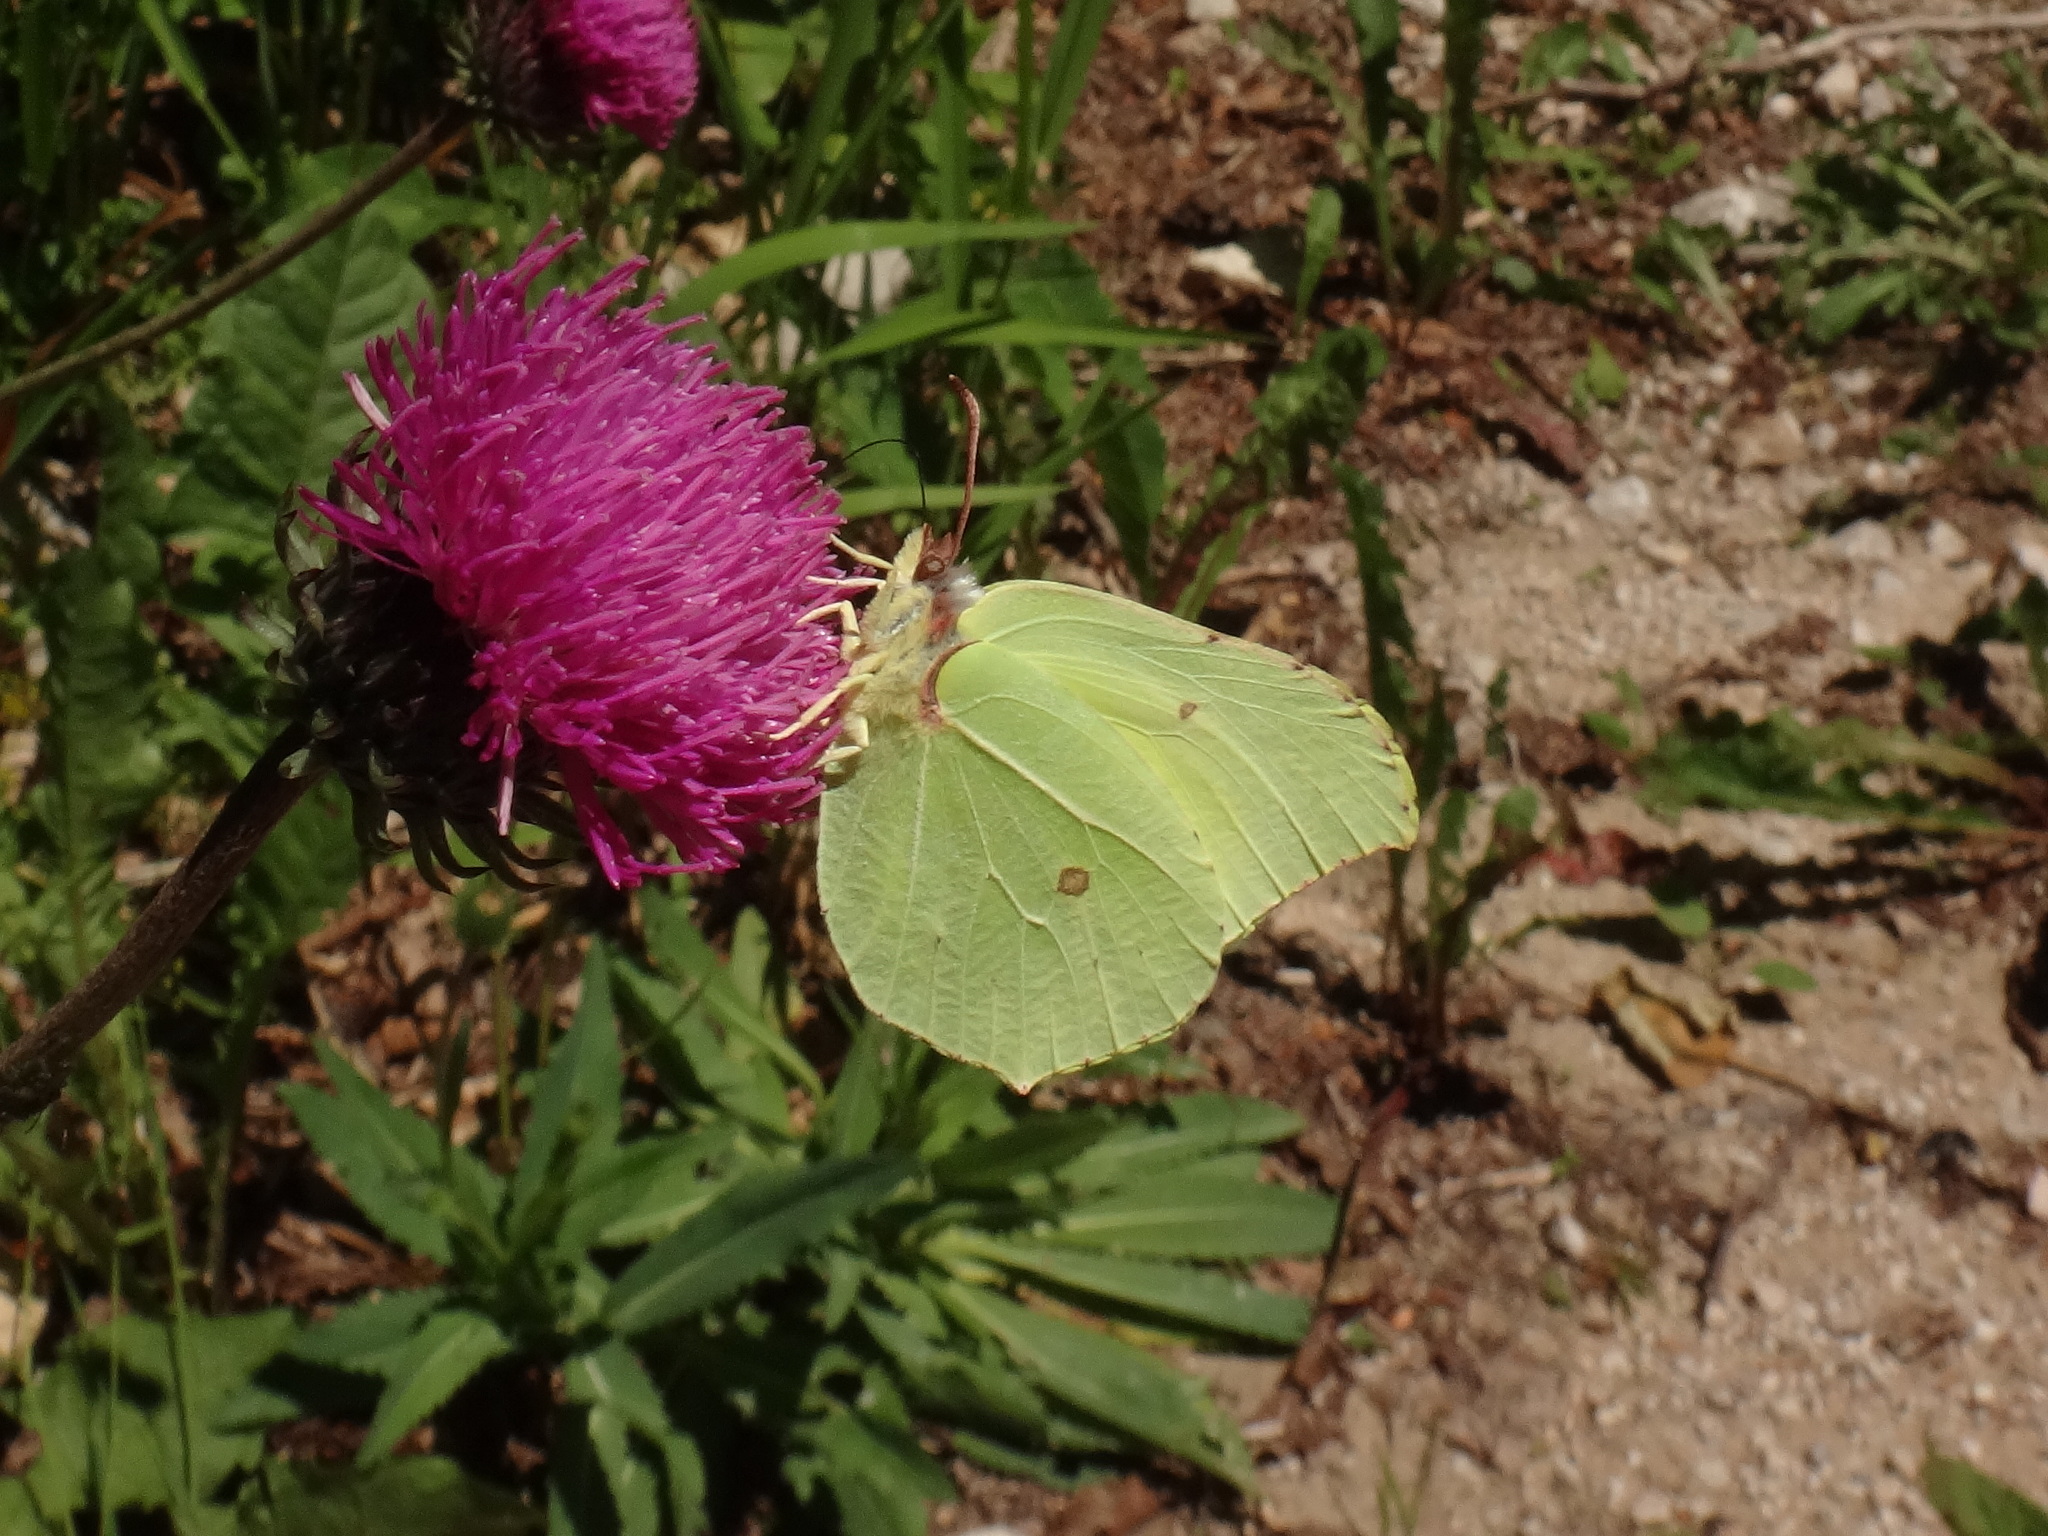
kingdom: Animalia
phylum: Arthropoda
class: Insecta
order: Lepidoptera
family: Pieridae
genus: Gonepteryx
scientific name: Gonepteryx rhamni
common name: Brimstone
